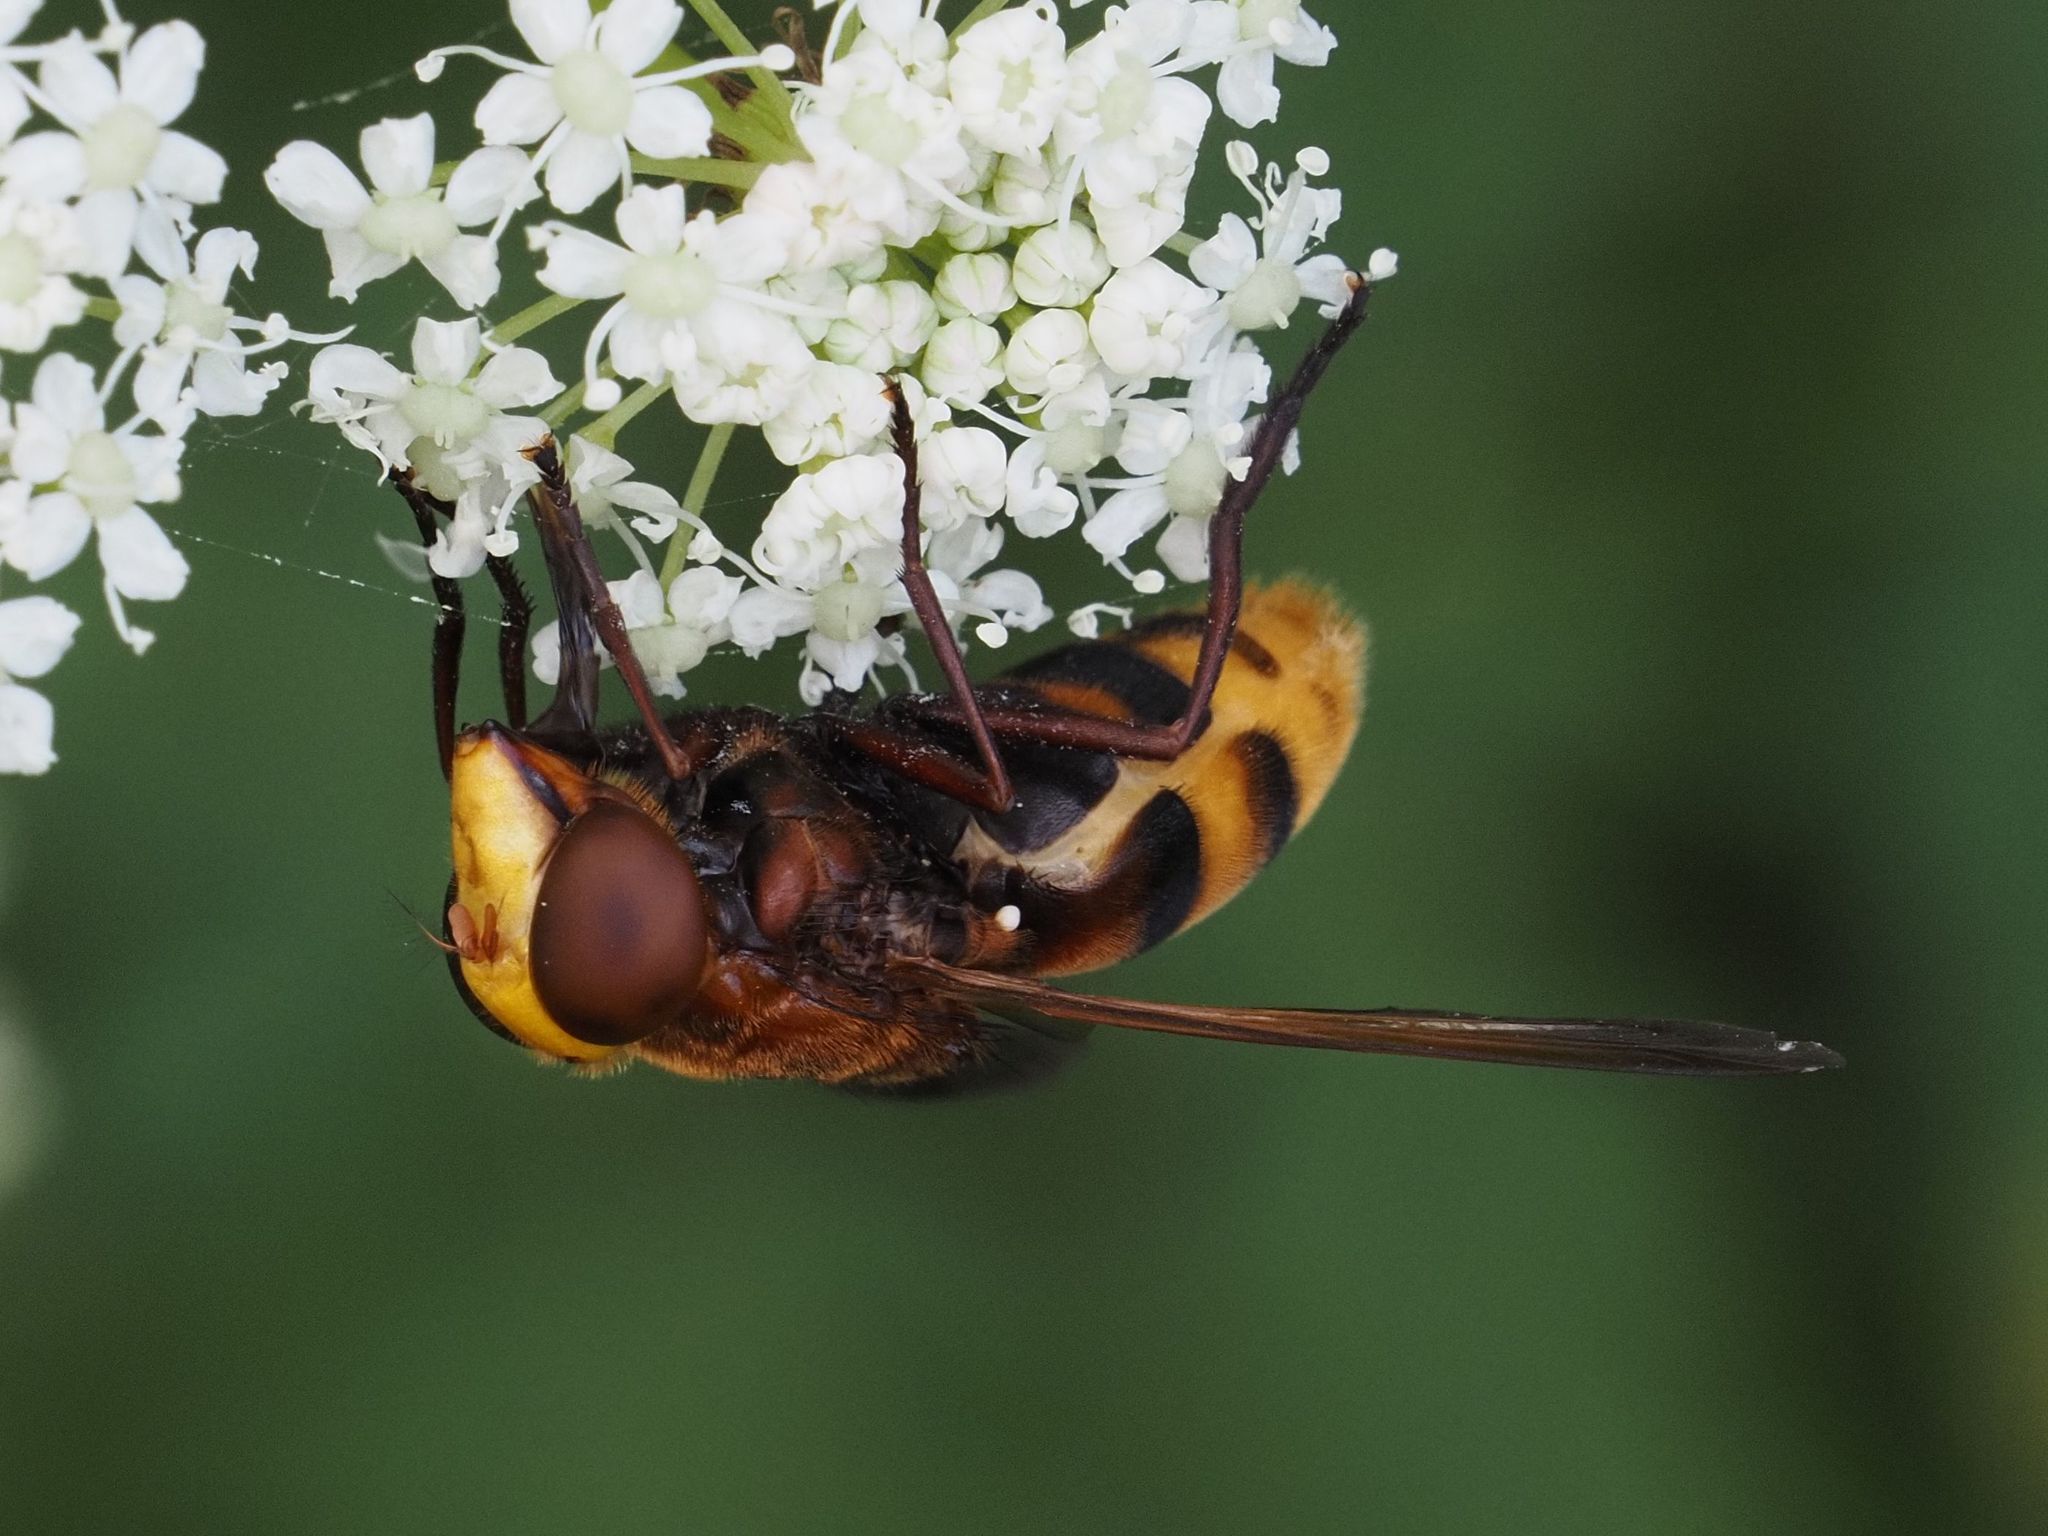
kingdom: Animalia
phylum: Arthropoda
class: Insecta
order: Diptera
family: Syrphidae
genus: Volucella
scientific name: Volucella zonaria
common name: Hornet hoverfly
